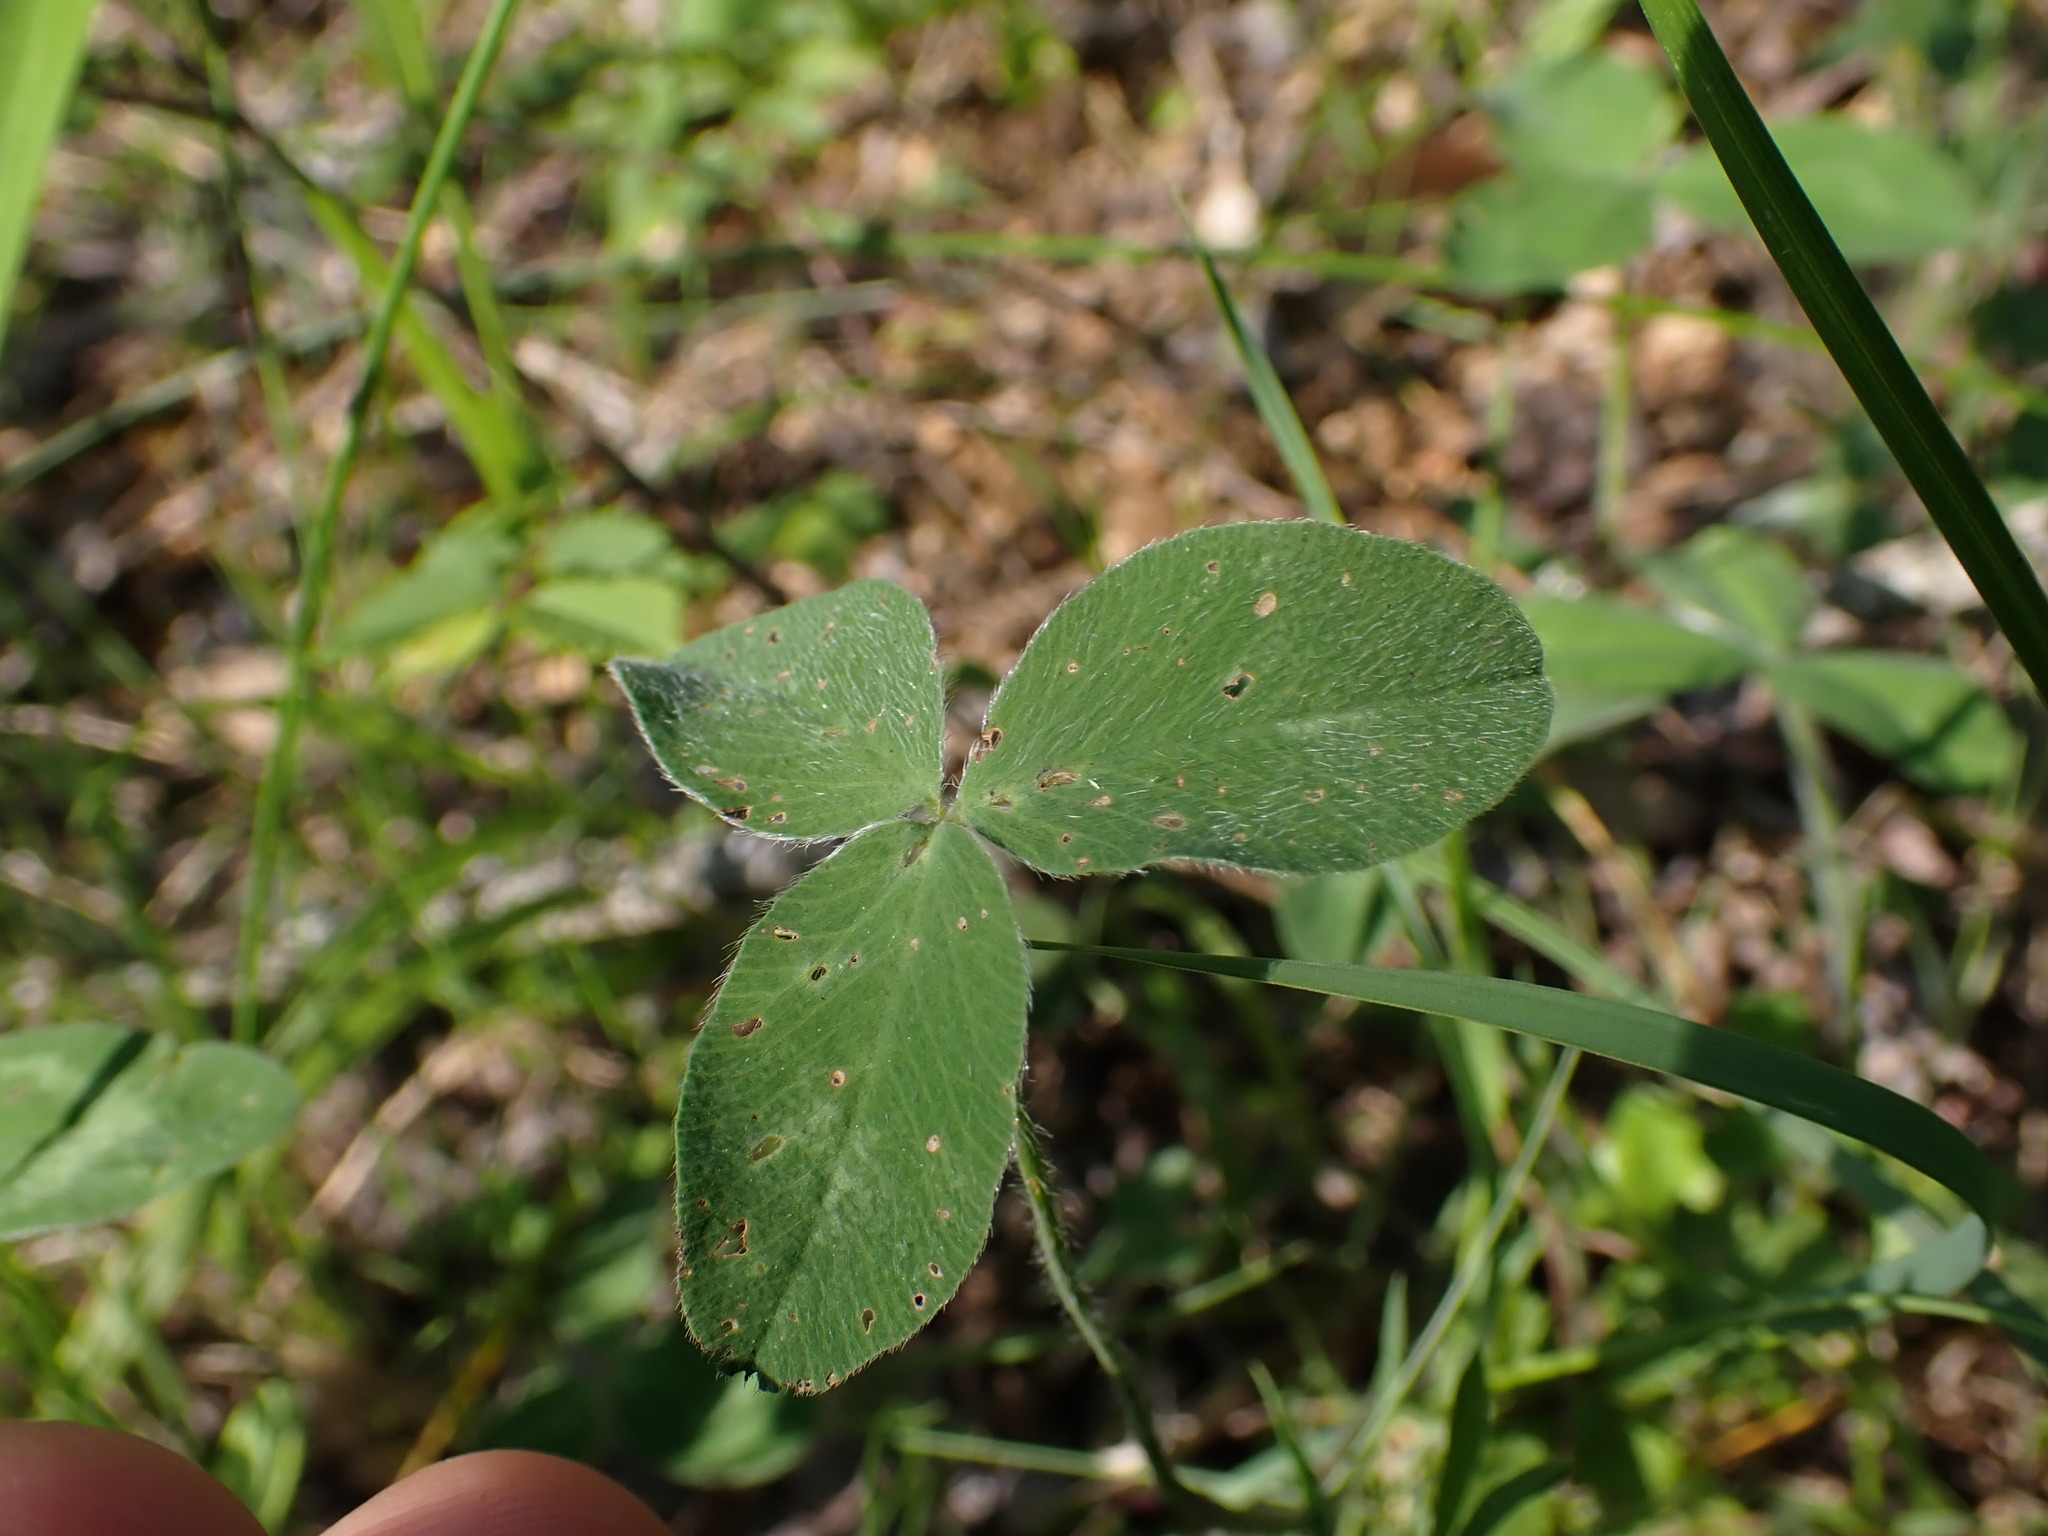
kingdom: Plantae
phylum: Tracheophyta
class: Magnoliopsida
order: Fabales
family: Fabaceae
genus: Trifolium
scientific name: Trifolium pratense
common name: Red clover
